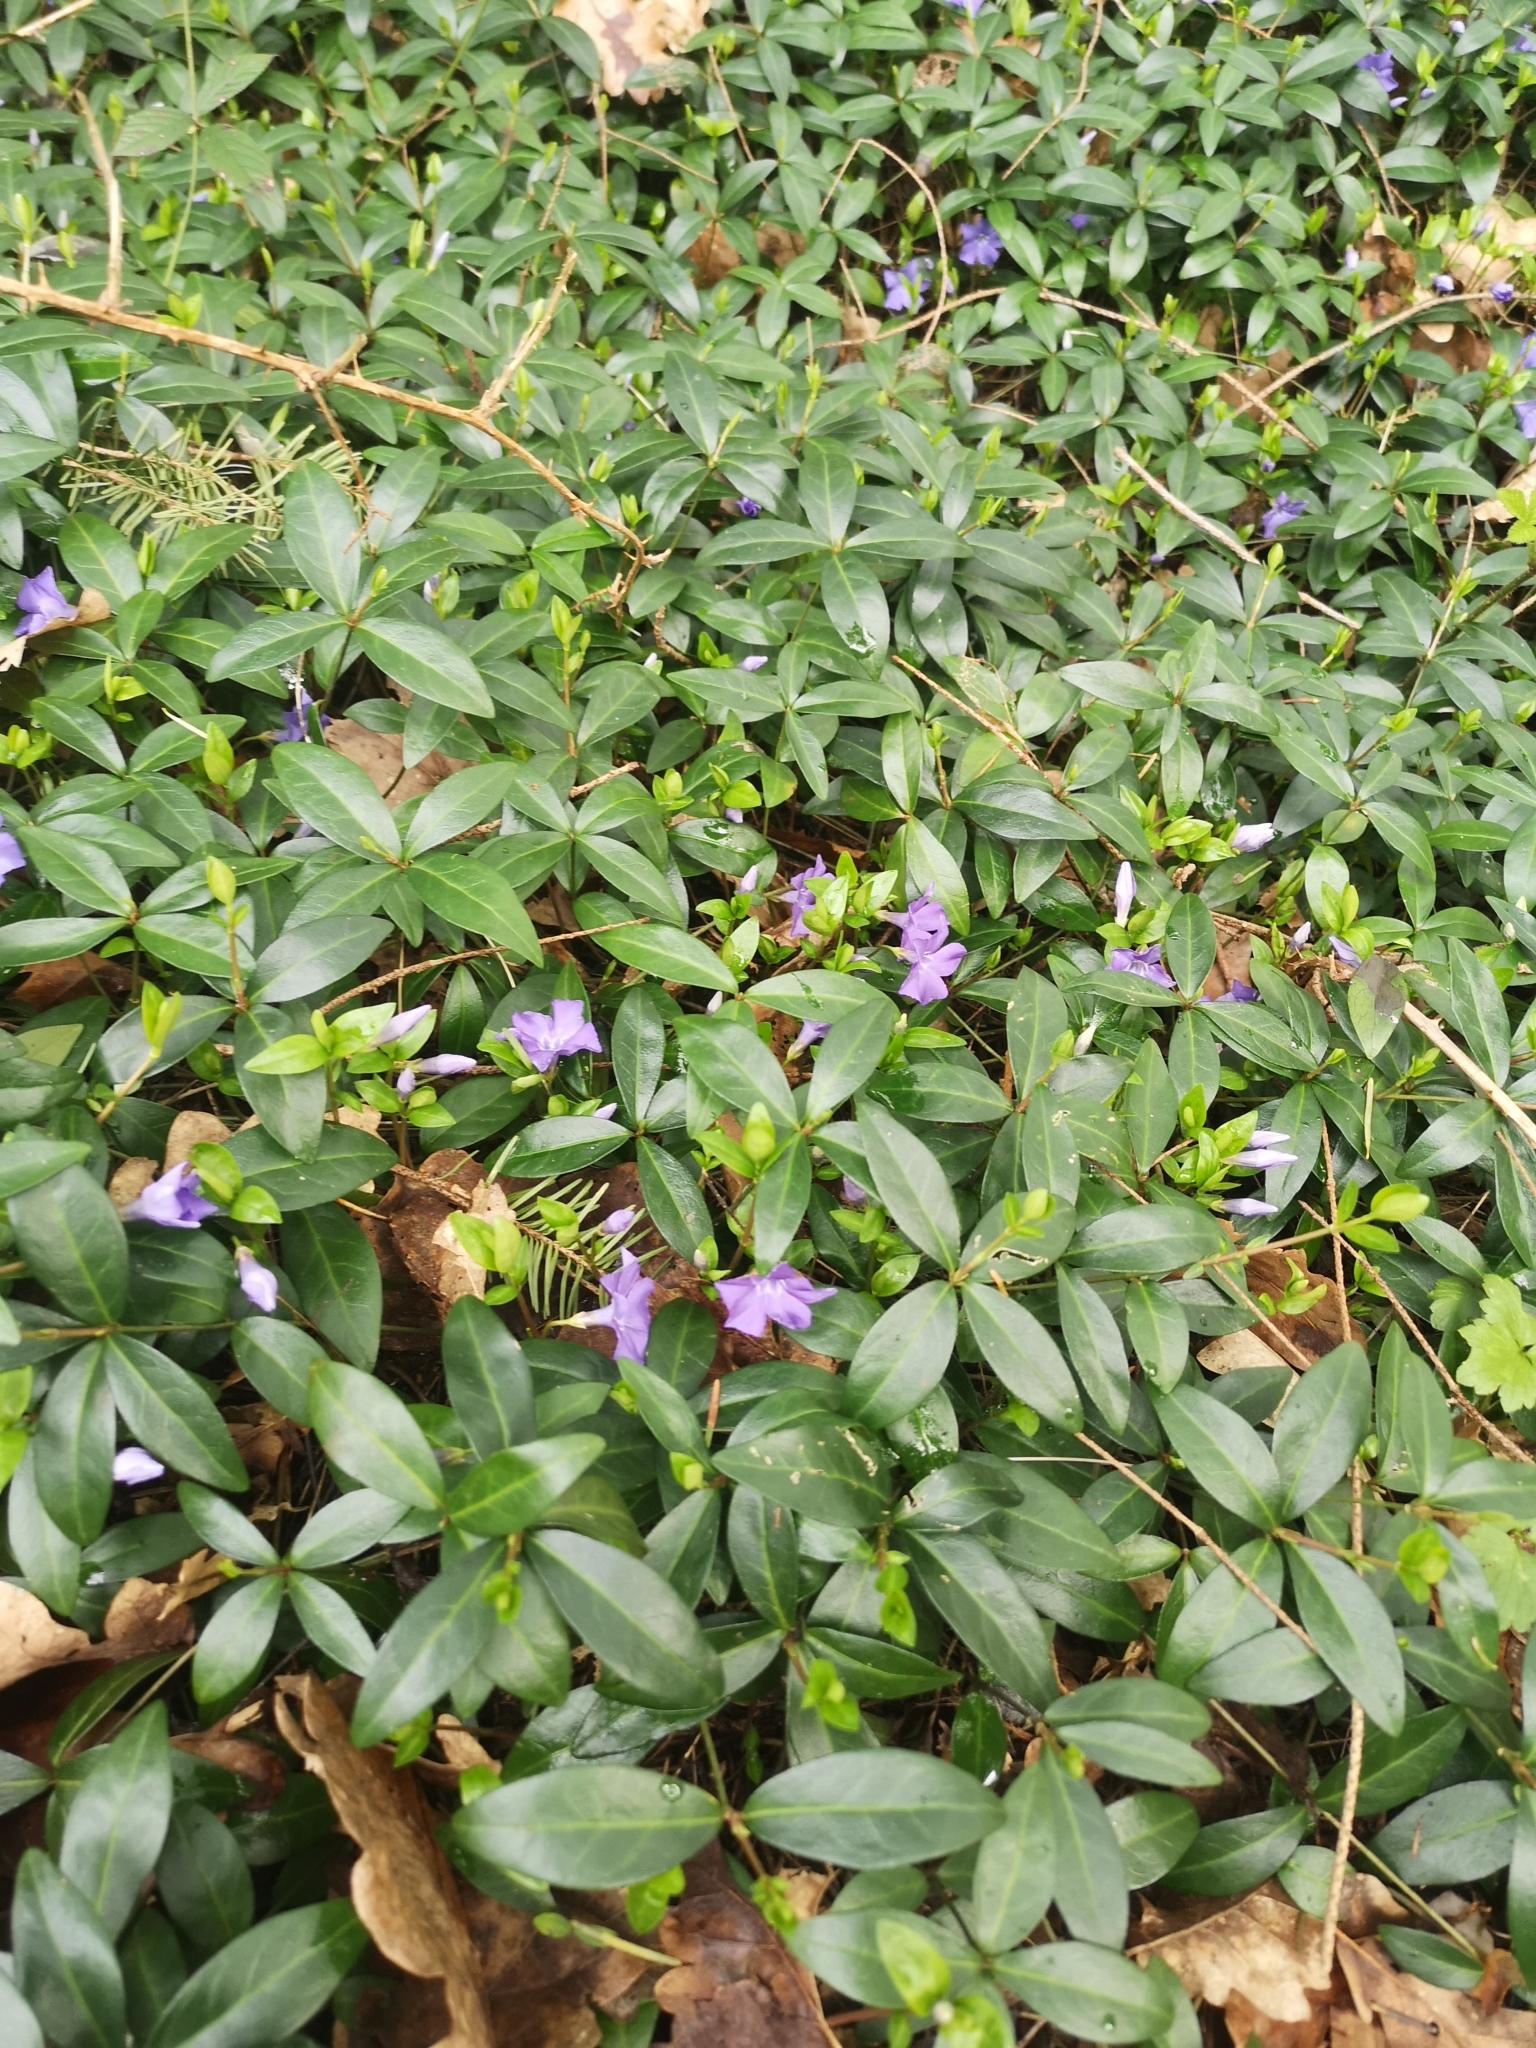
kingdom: Plantae
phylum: Tracheophyta
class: Magnoliopsida
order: Gentianales
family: Apocynaceae
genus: Vinca
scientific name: Vinca minor
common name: Lesser periwinkle
